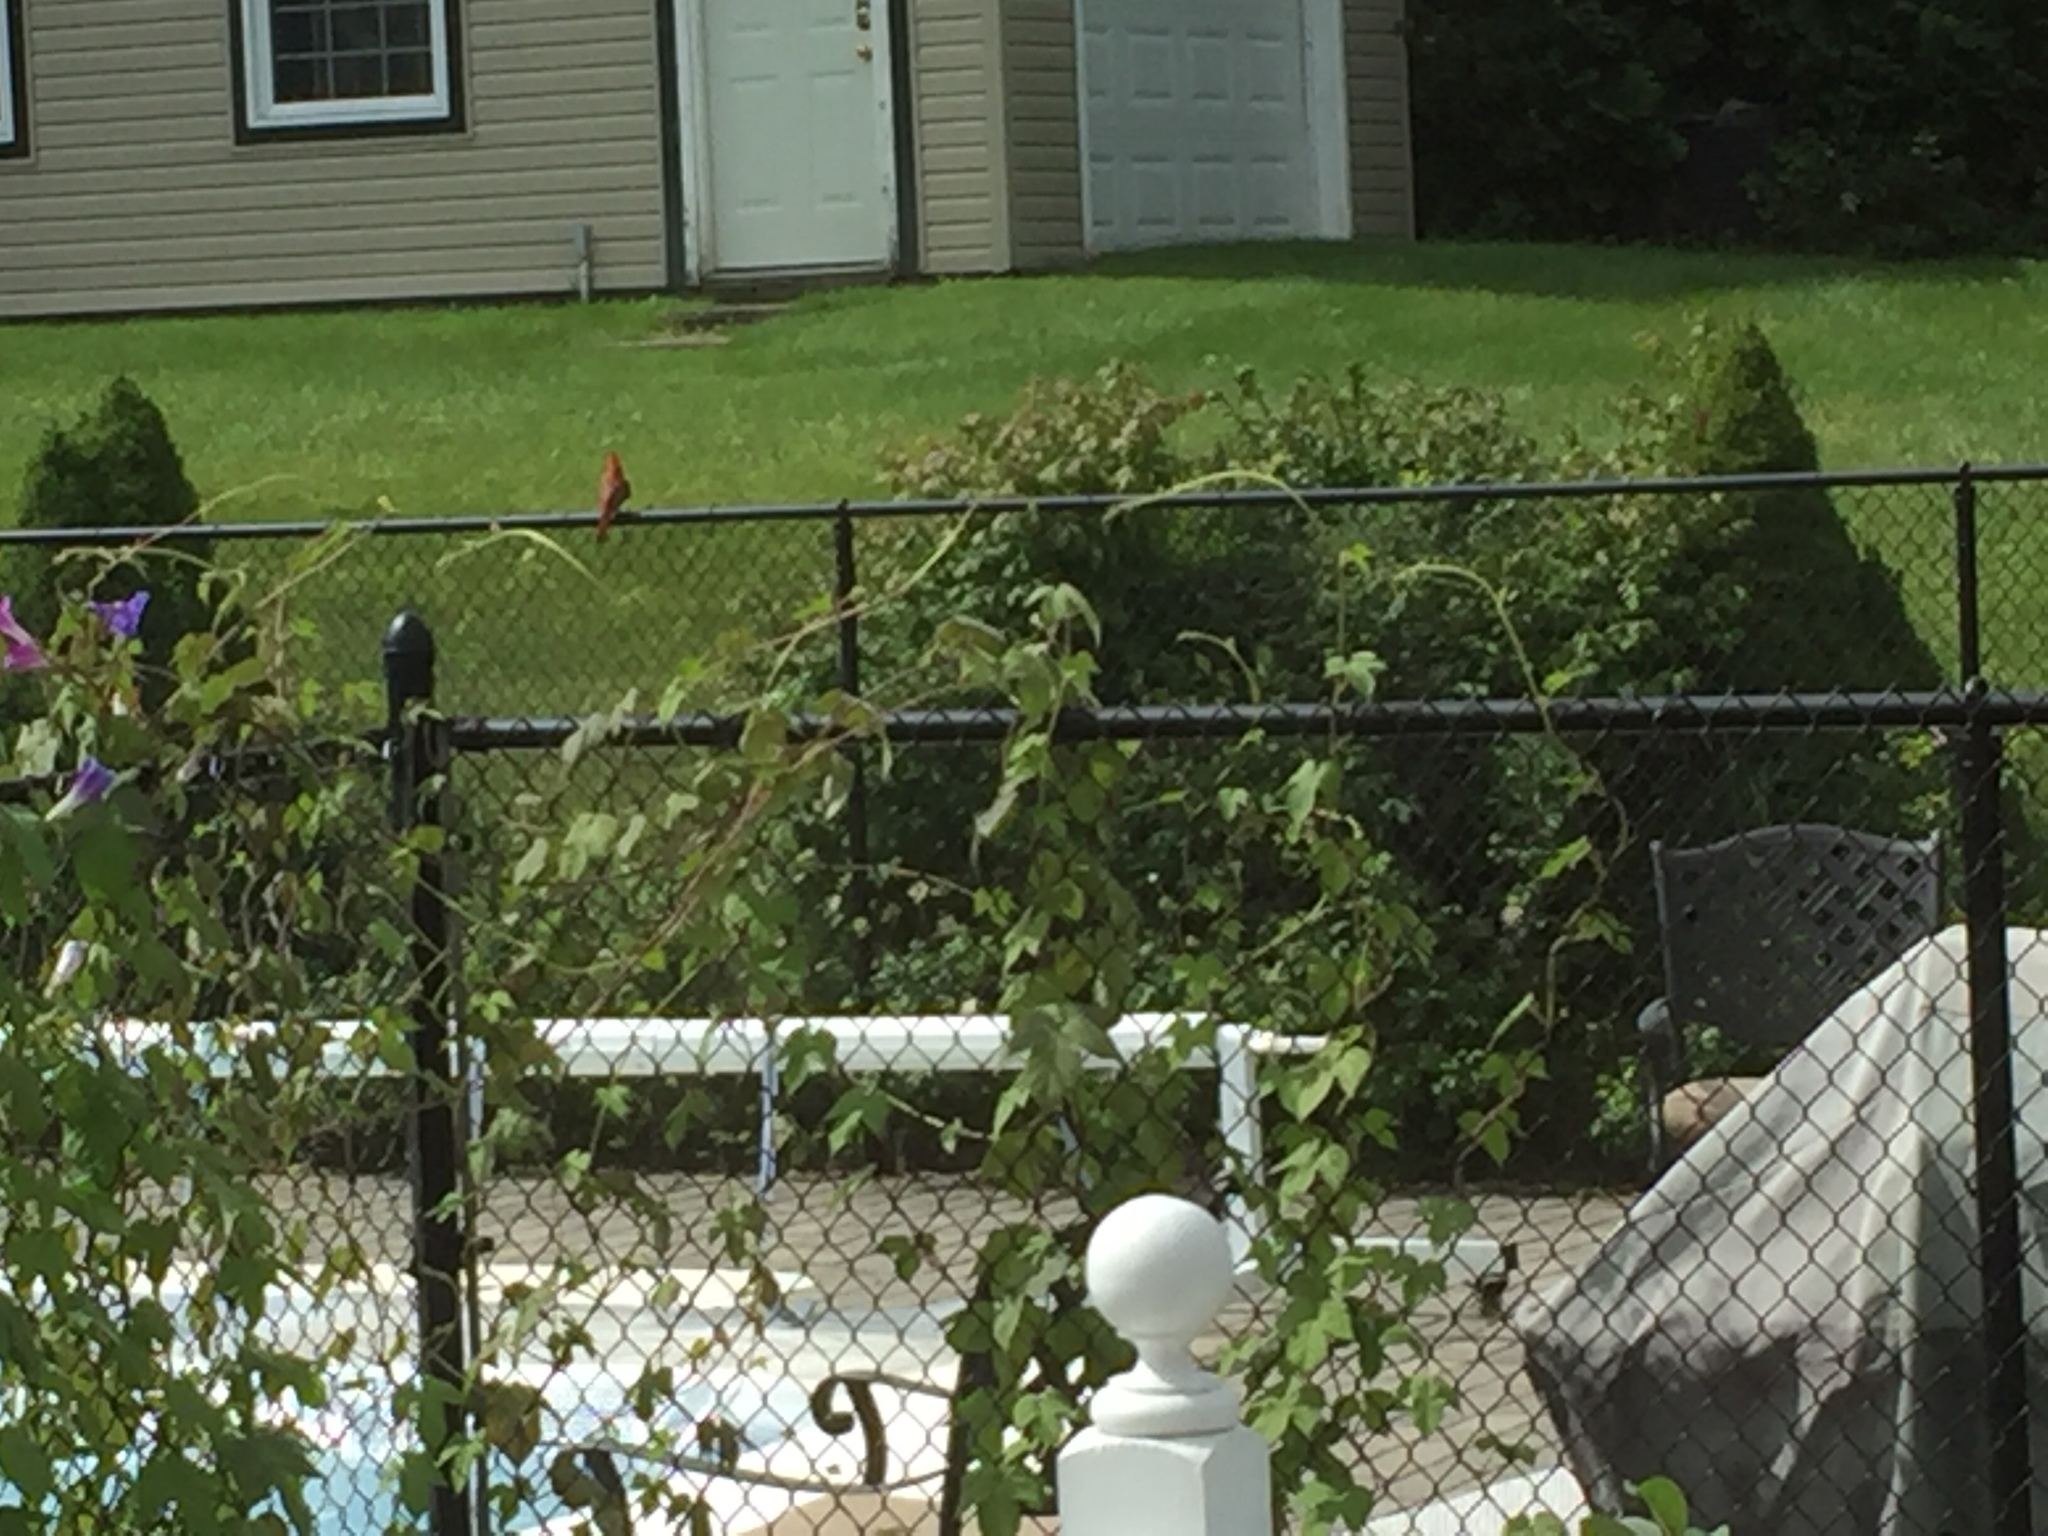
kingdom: Animalia
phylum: Chordata
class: Aves
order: Passeriformes
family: Cardinalidae
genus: Cardinalis
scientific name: Cardinalis cardinalis
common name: Northern cardinal
